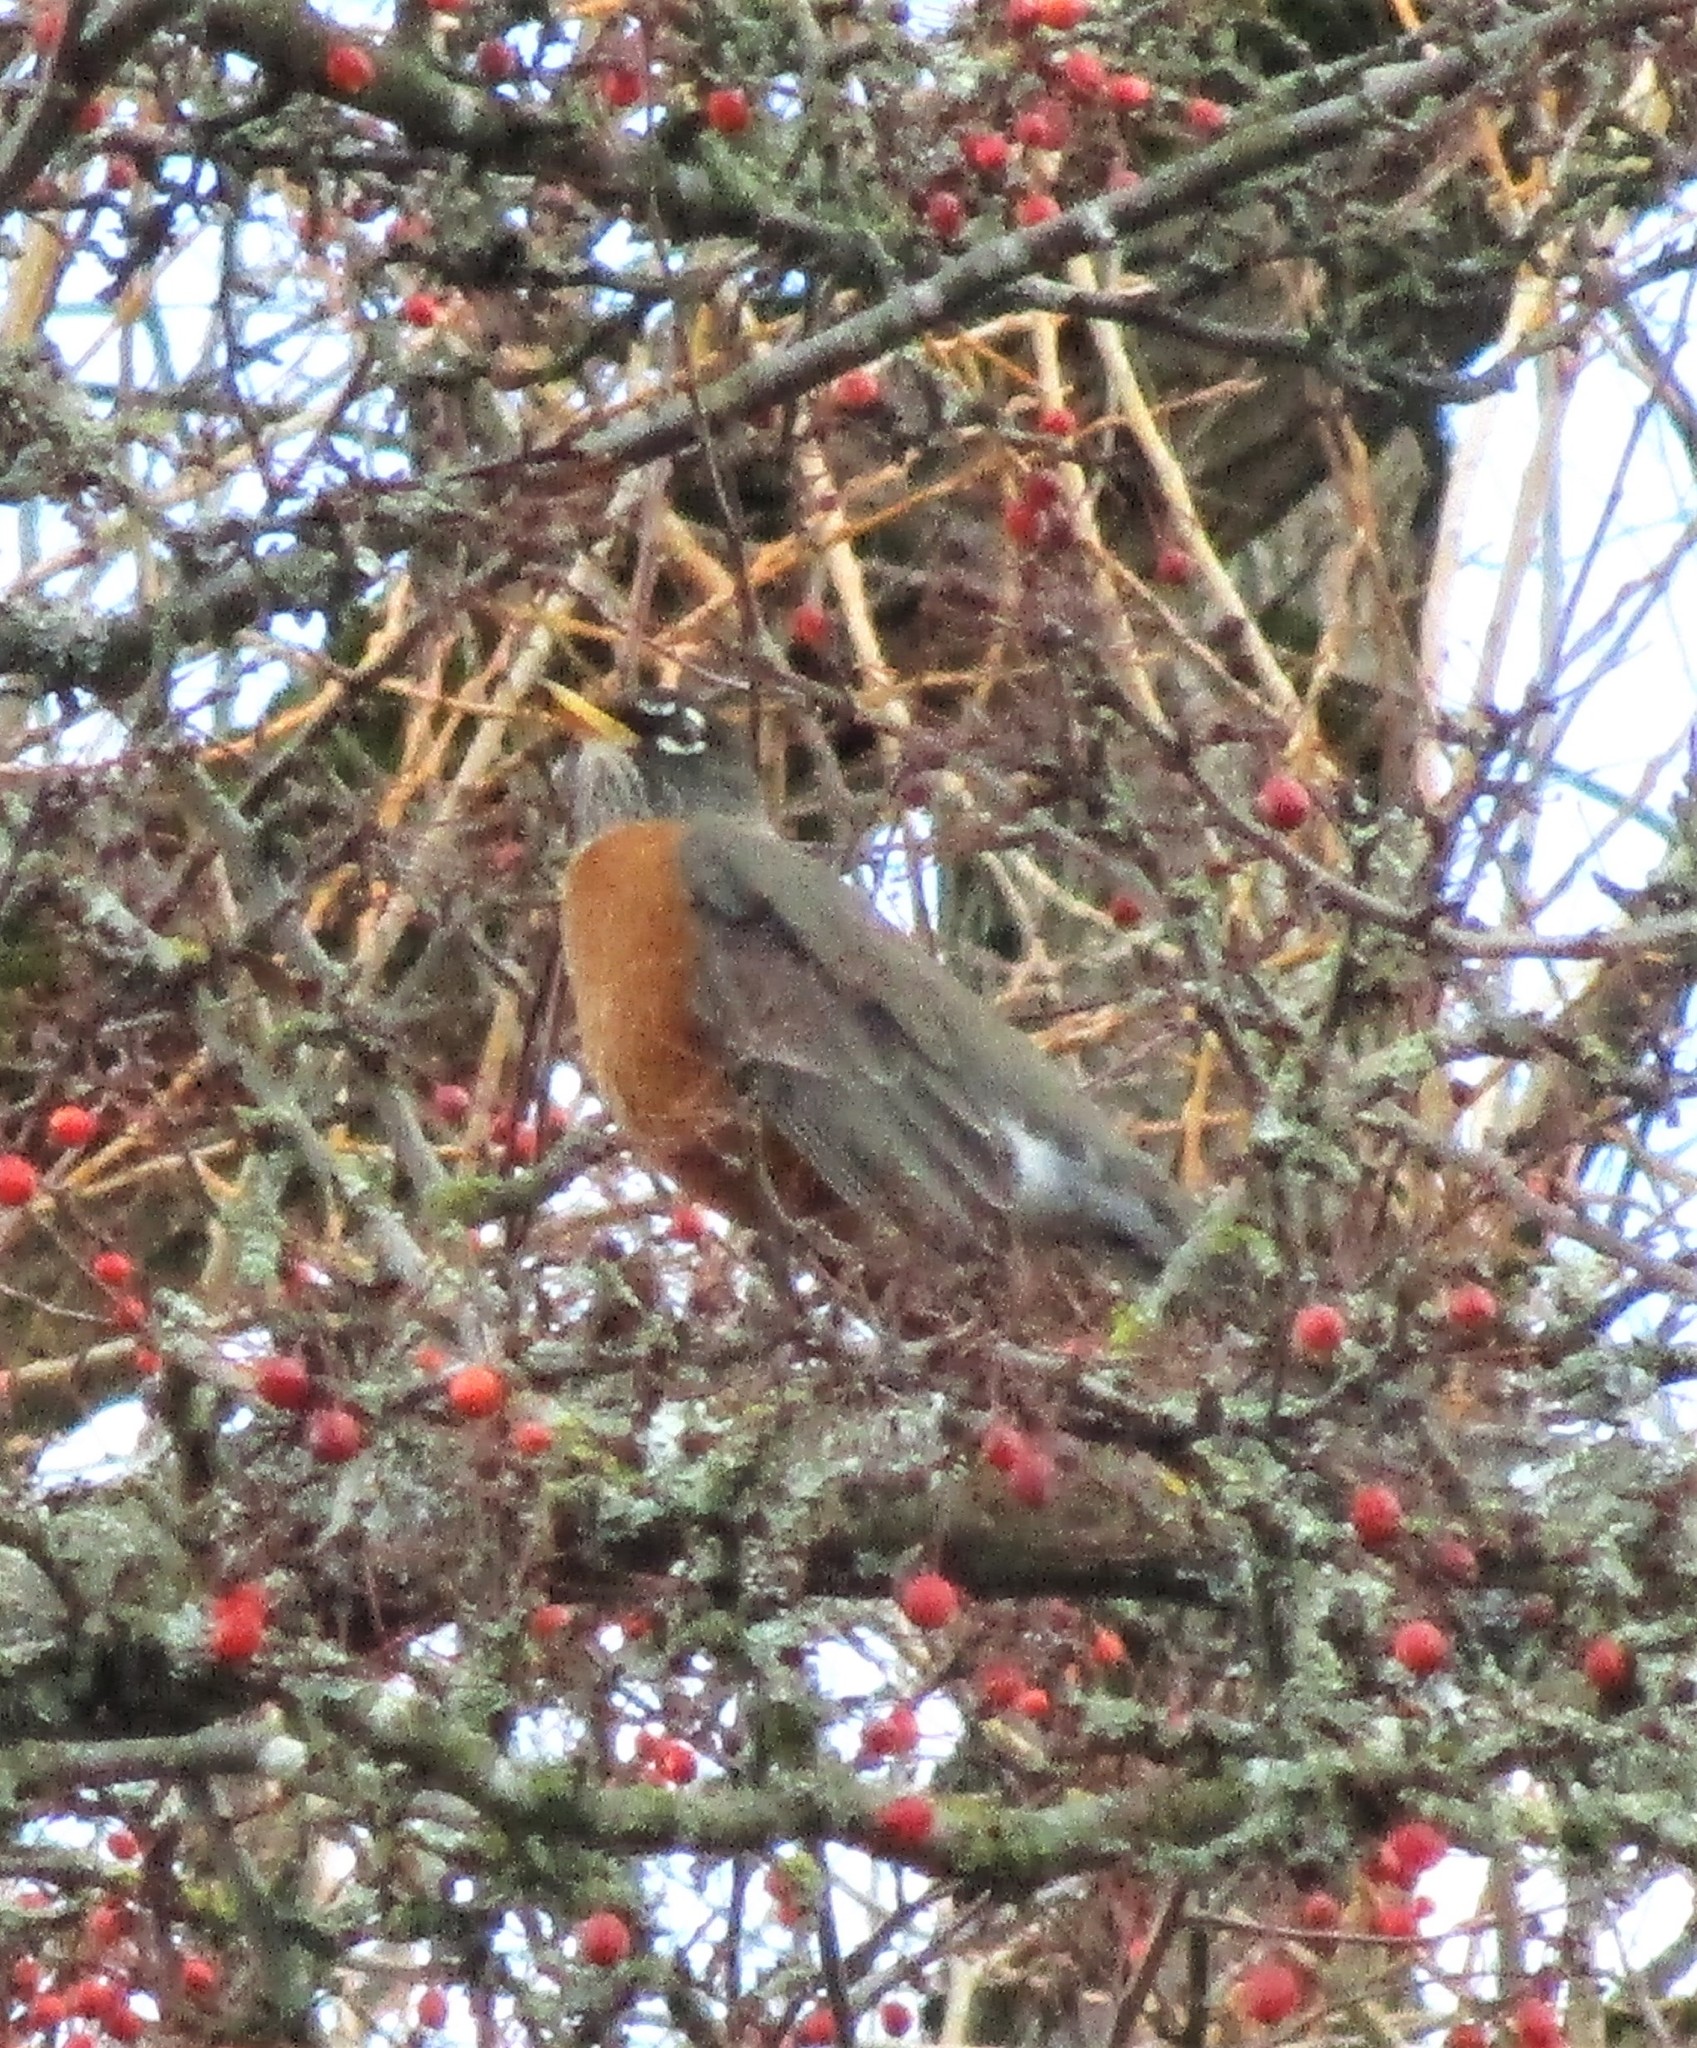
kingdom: Animalia
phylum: Chordata
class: Aves
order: Passeriformes
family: Turdidae
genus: Turdus
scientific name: Turdus migratorius
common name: American robin
